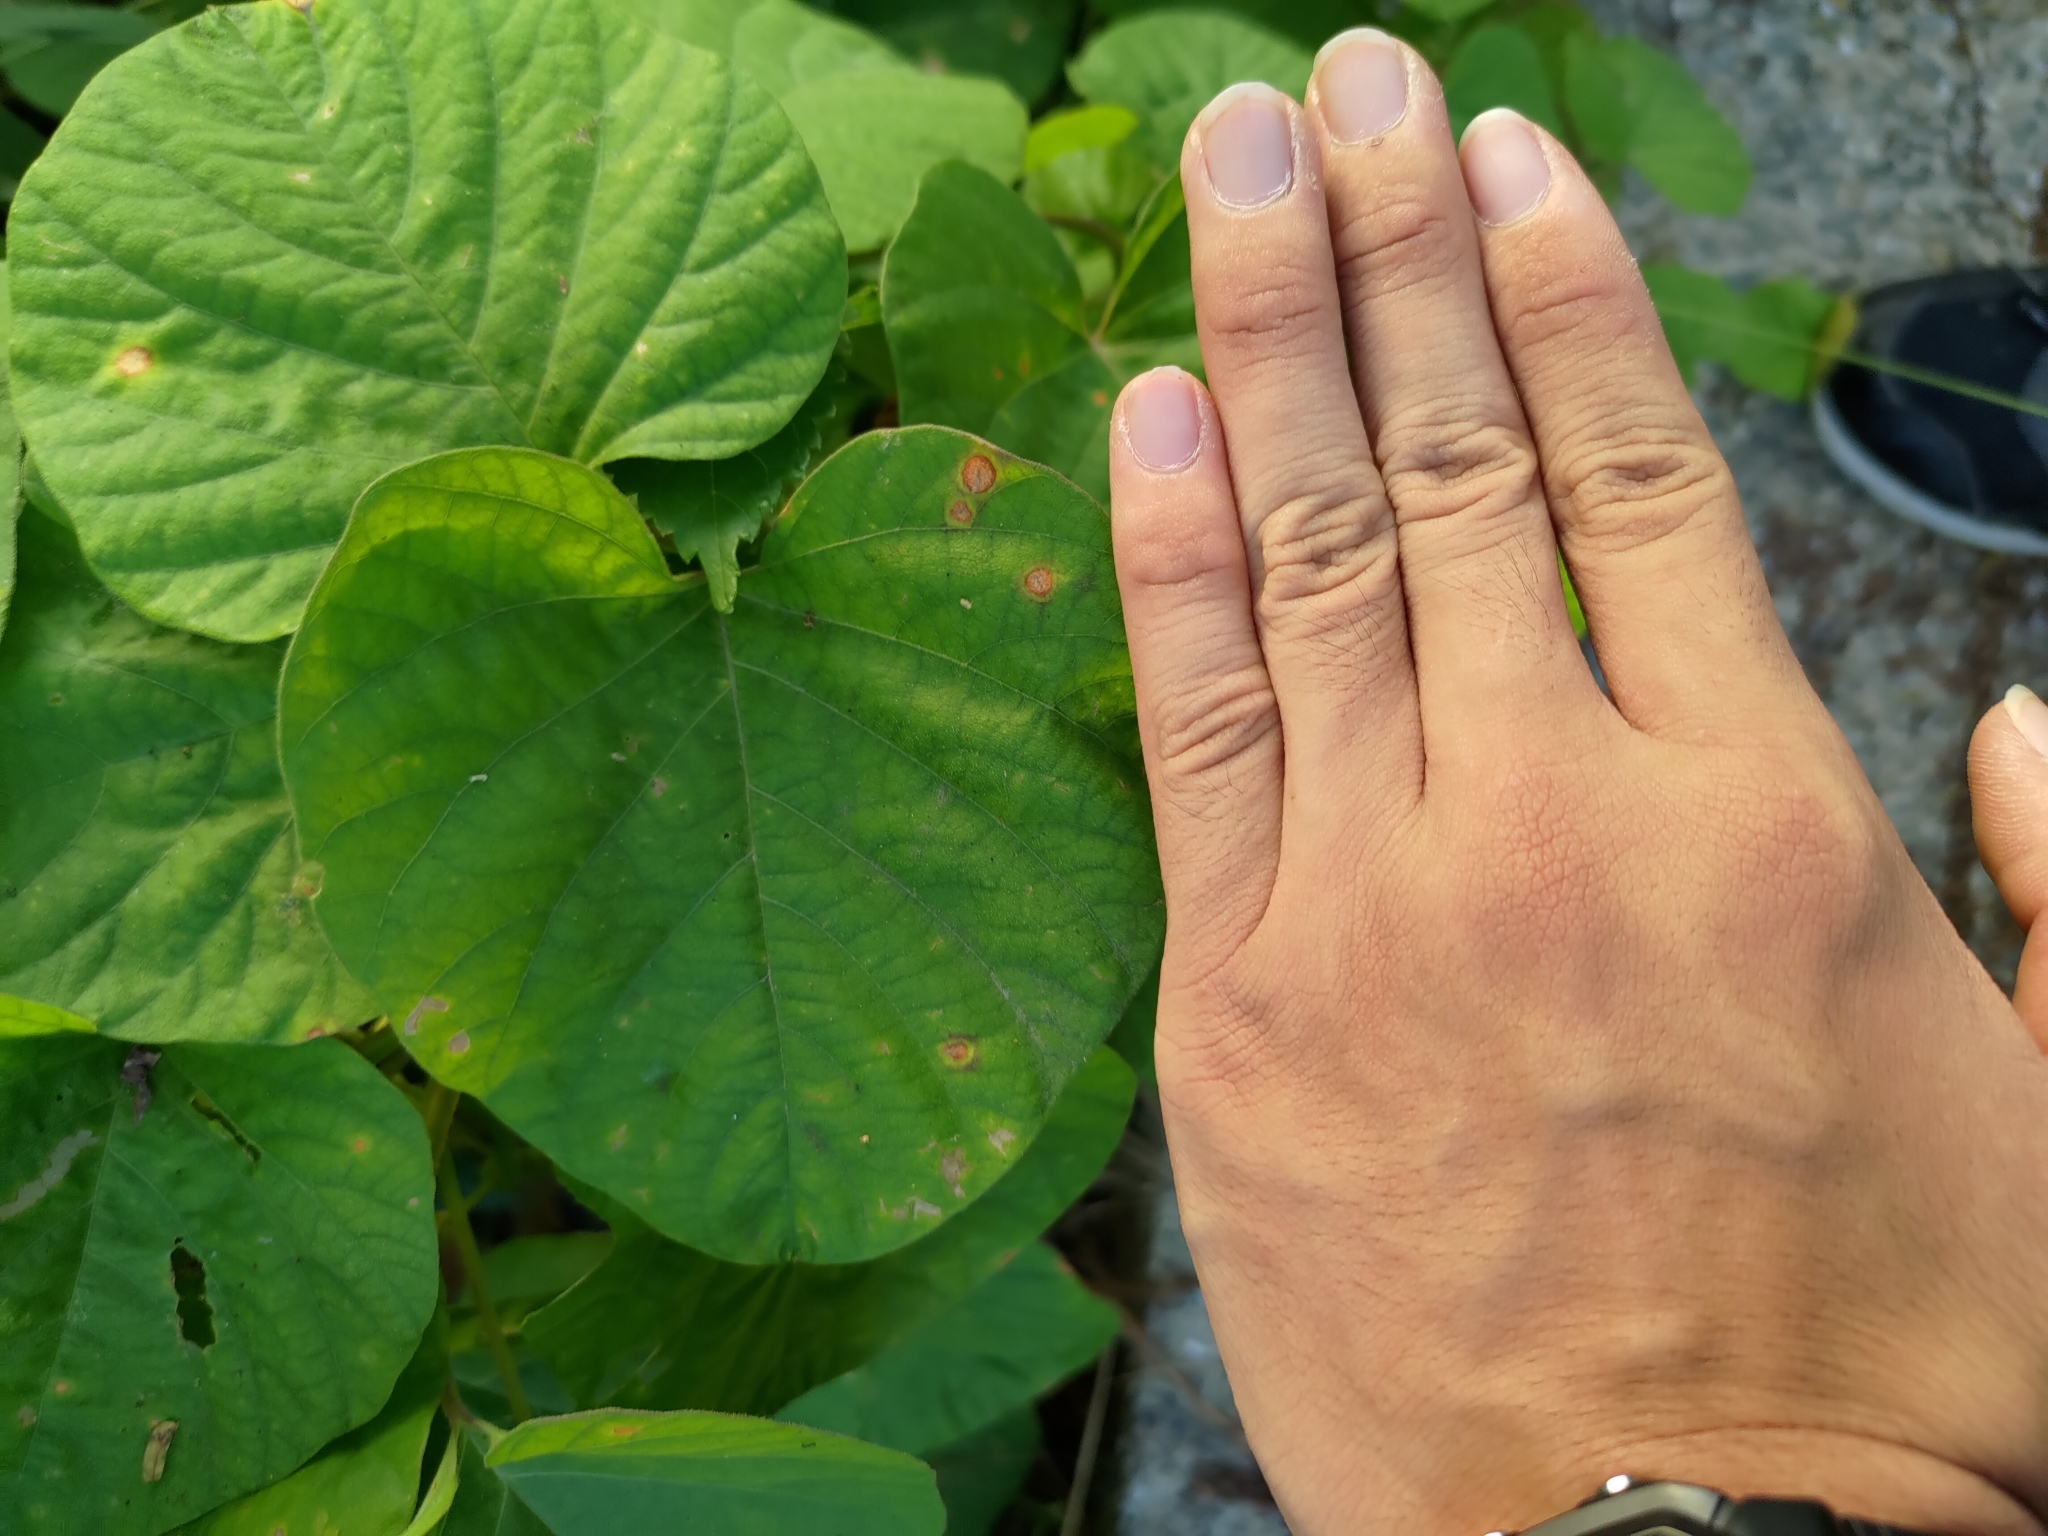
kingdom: Plantae
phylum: Tracheophyta
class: Magnoliopsida
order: Solanales
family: Convolvulaceae
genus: Operculina
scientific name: Operculina turpethum
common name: Transparent wood-rose
